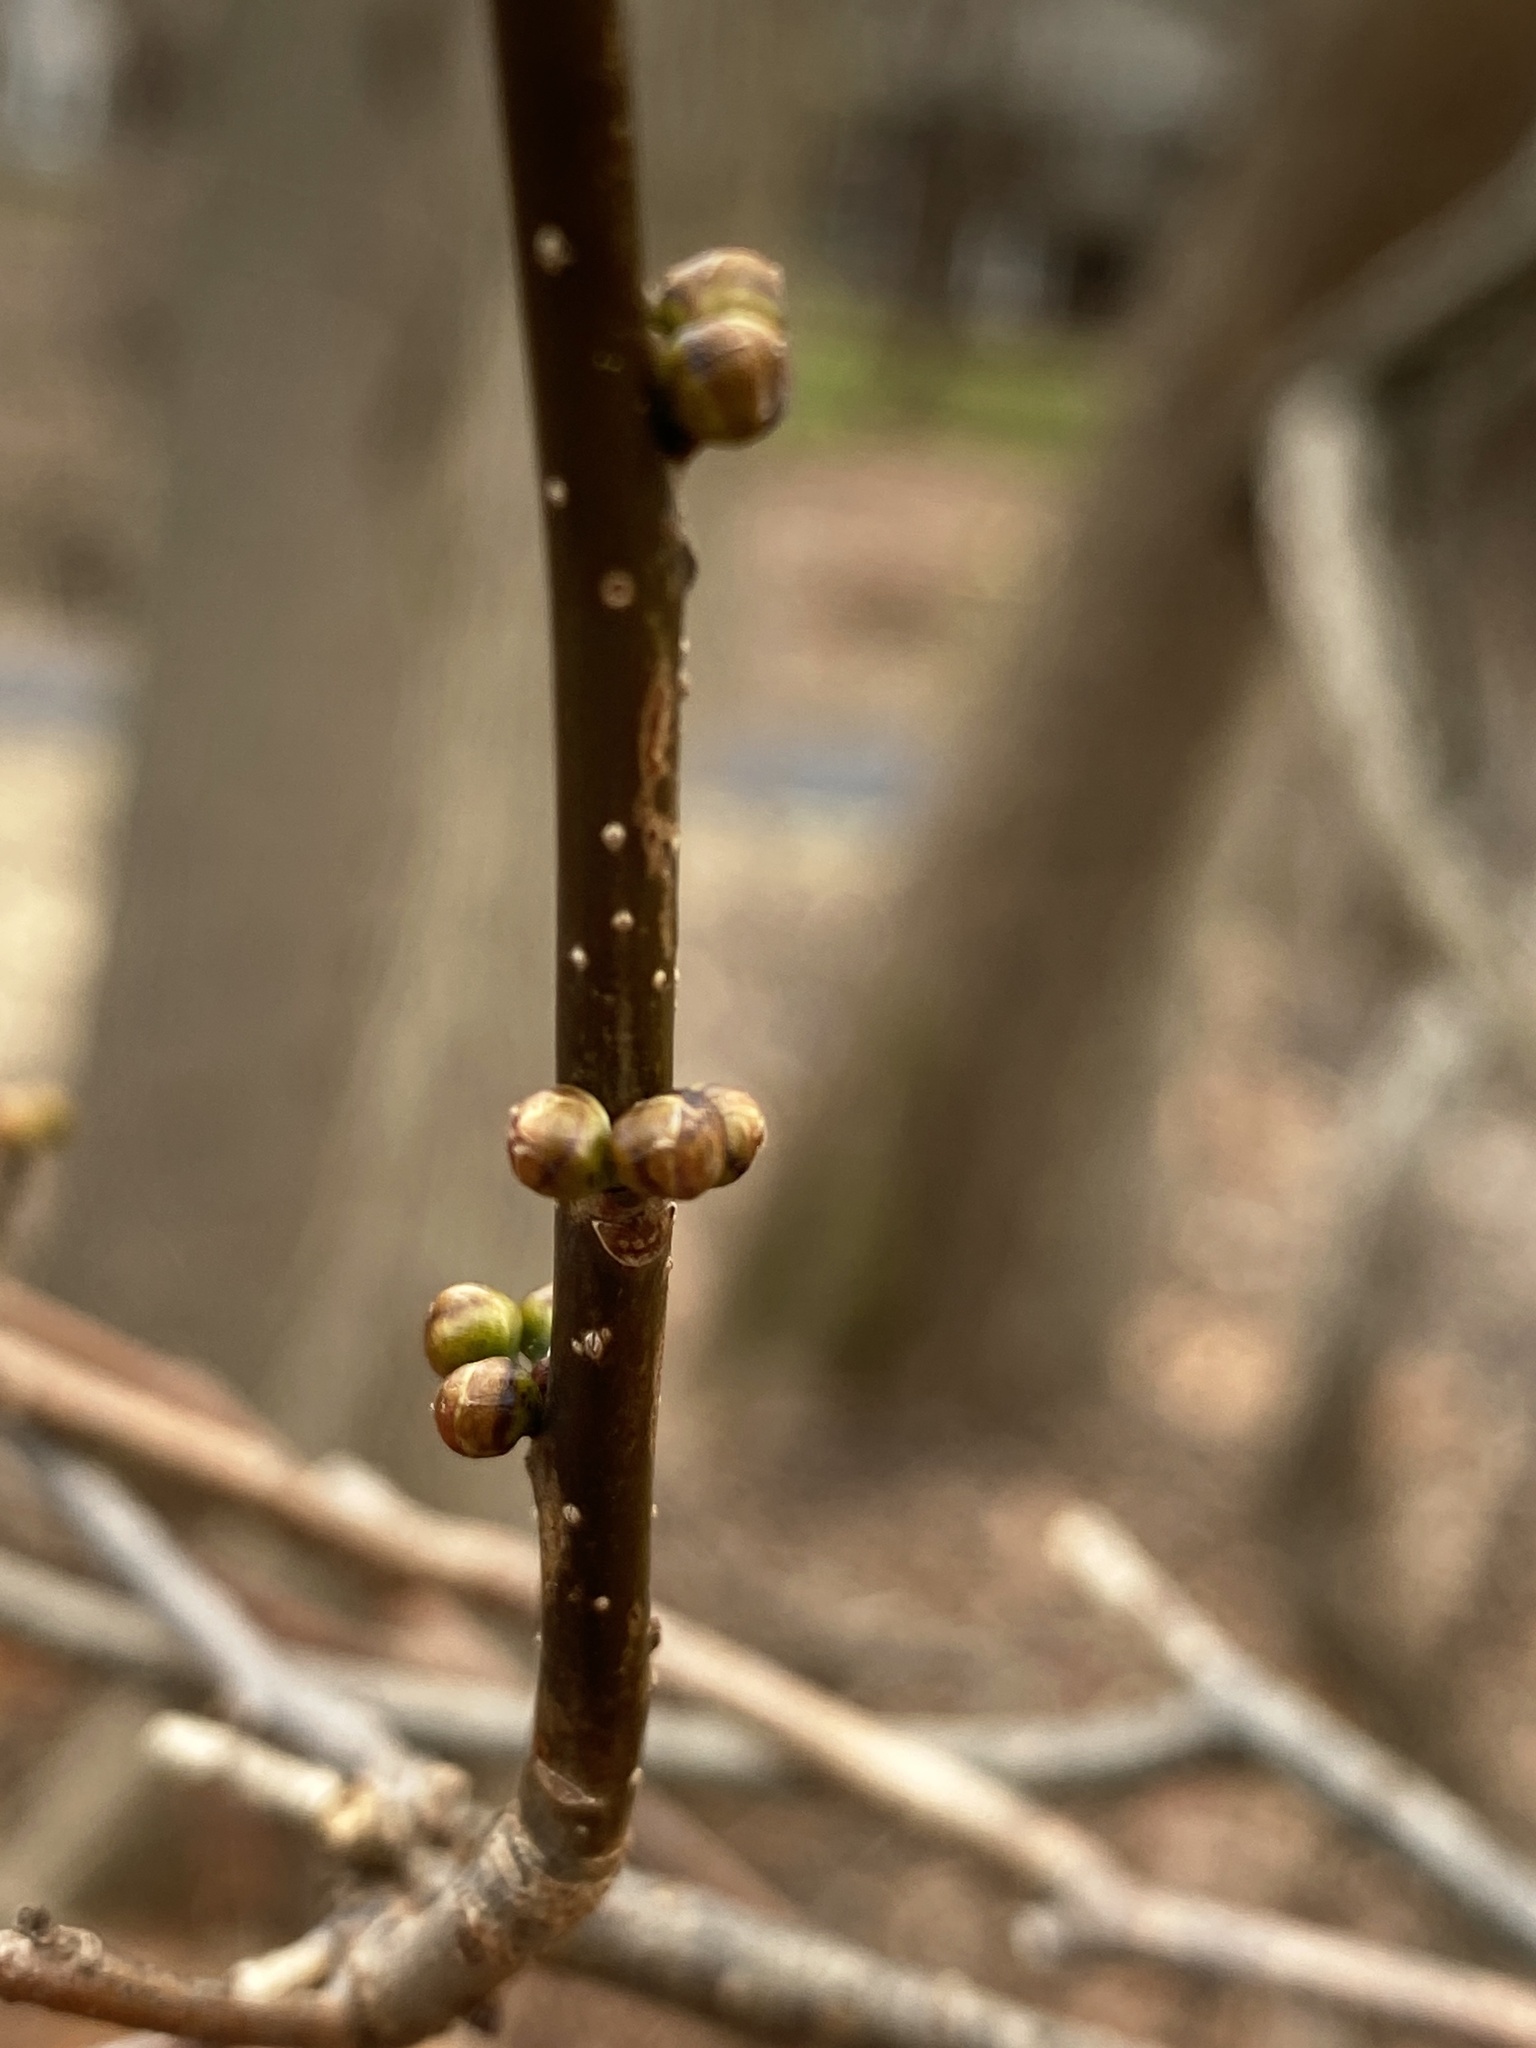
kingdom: Plantae
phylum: Tracheophyta
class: Magnoliopsida
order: Laurales
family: Lauraceae
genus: Lindera
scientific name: Lindera benzoin
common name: Spicebush
